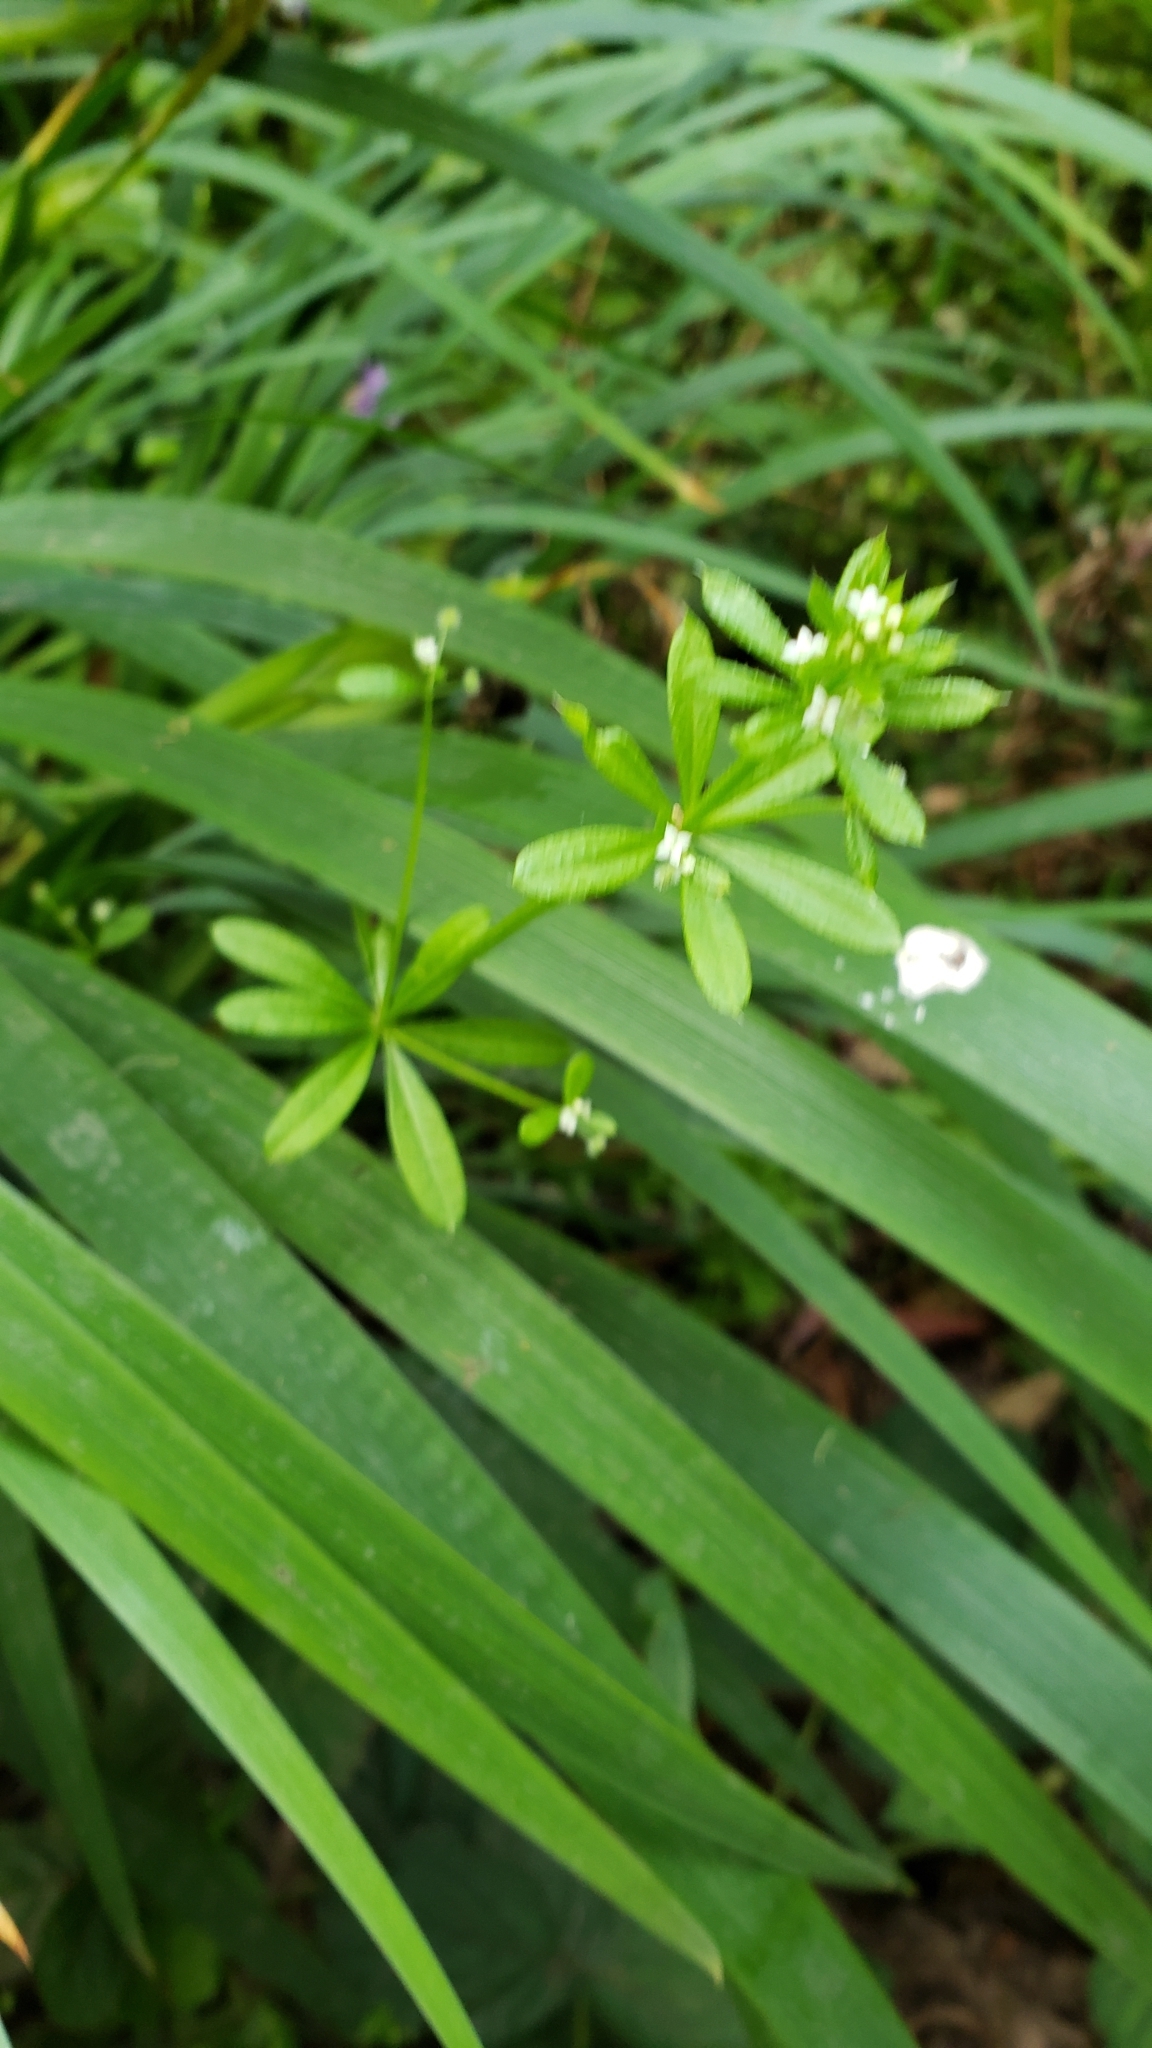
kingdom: Plantae
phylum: Tracheophyta
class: Magnoliopsida
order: Gentianales
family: Rubiaceae
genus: Galium
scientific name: Galium aparine
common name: Cleavers
